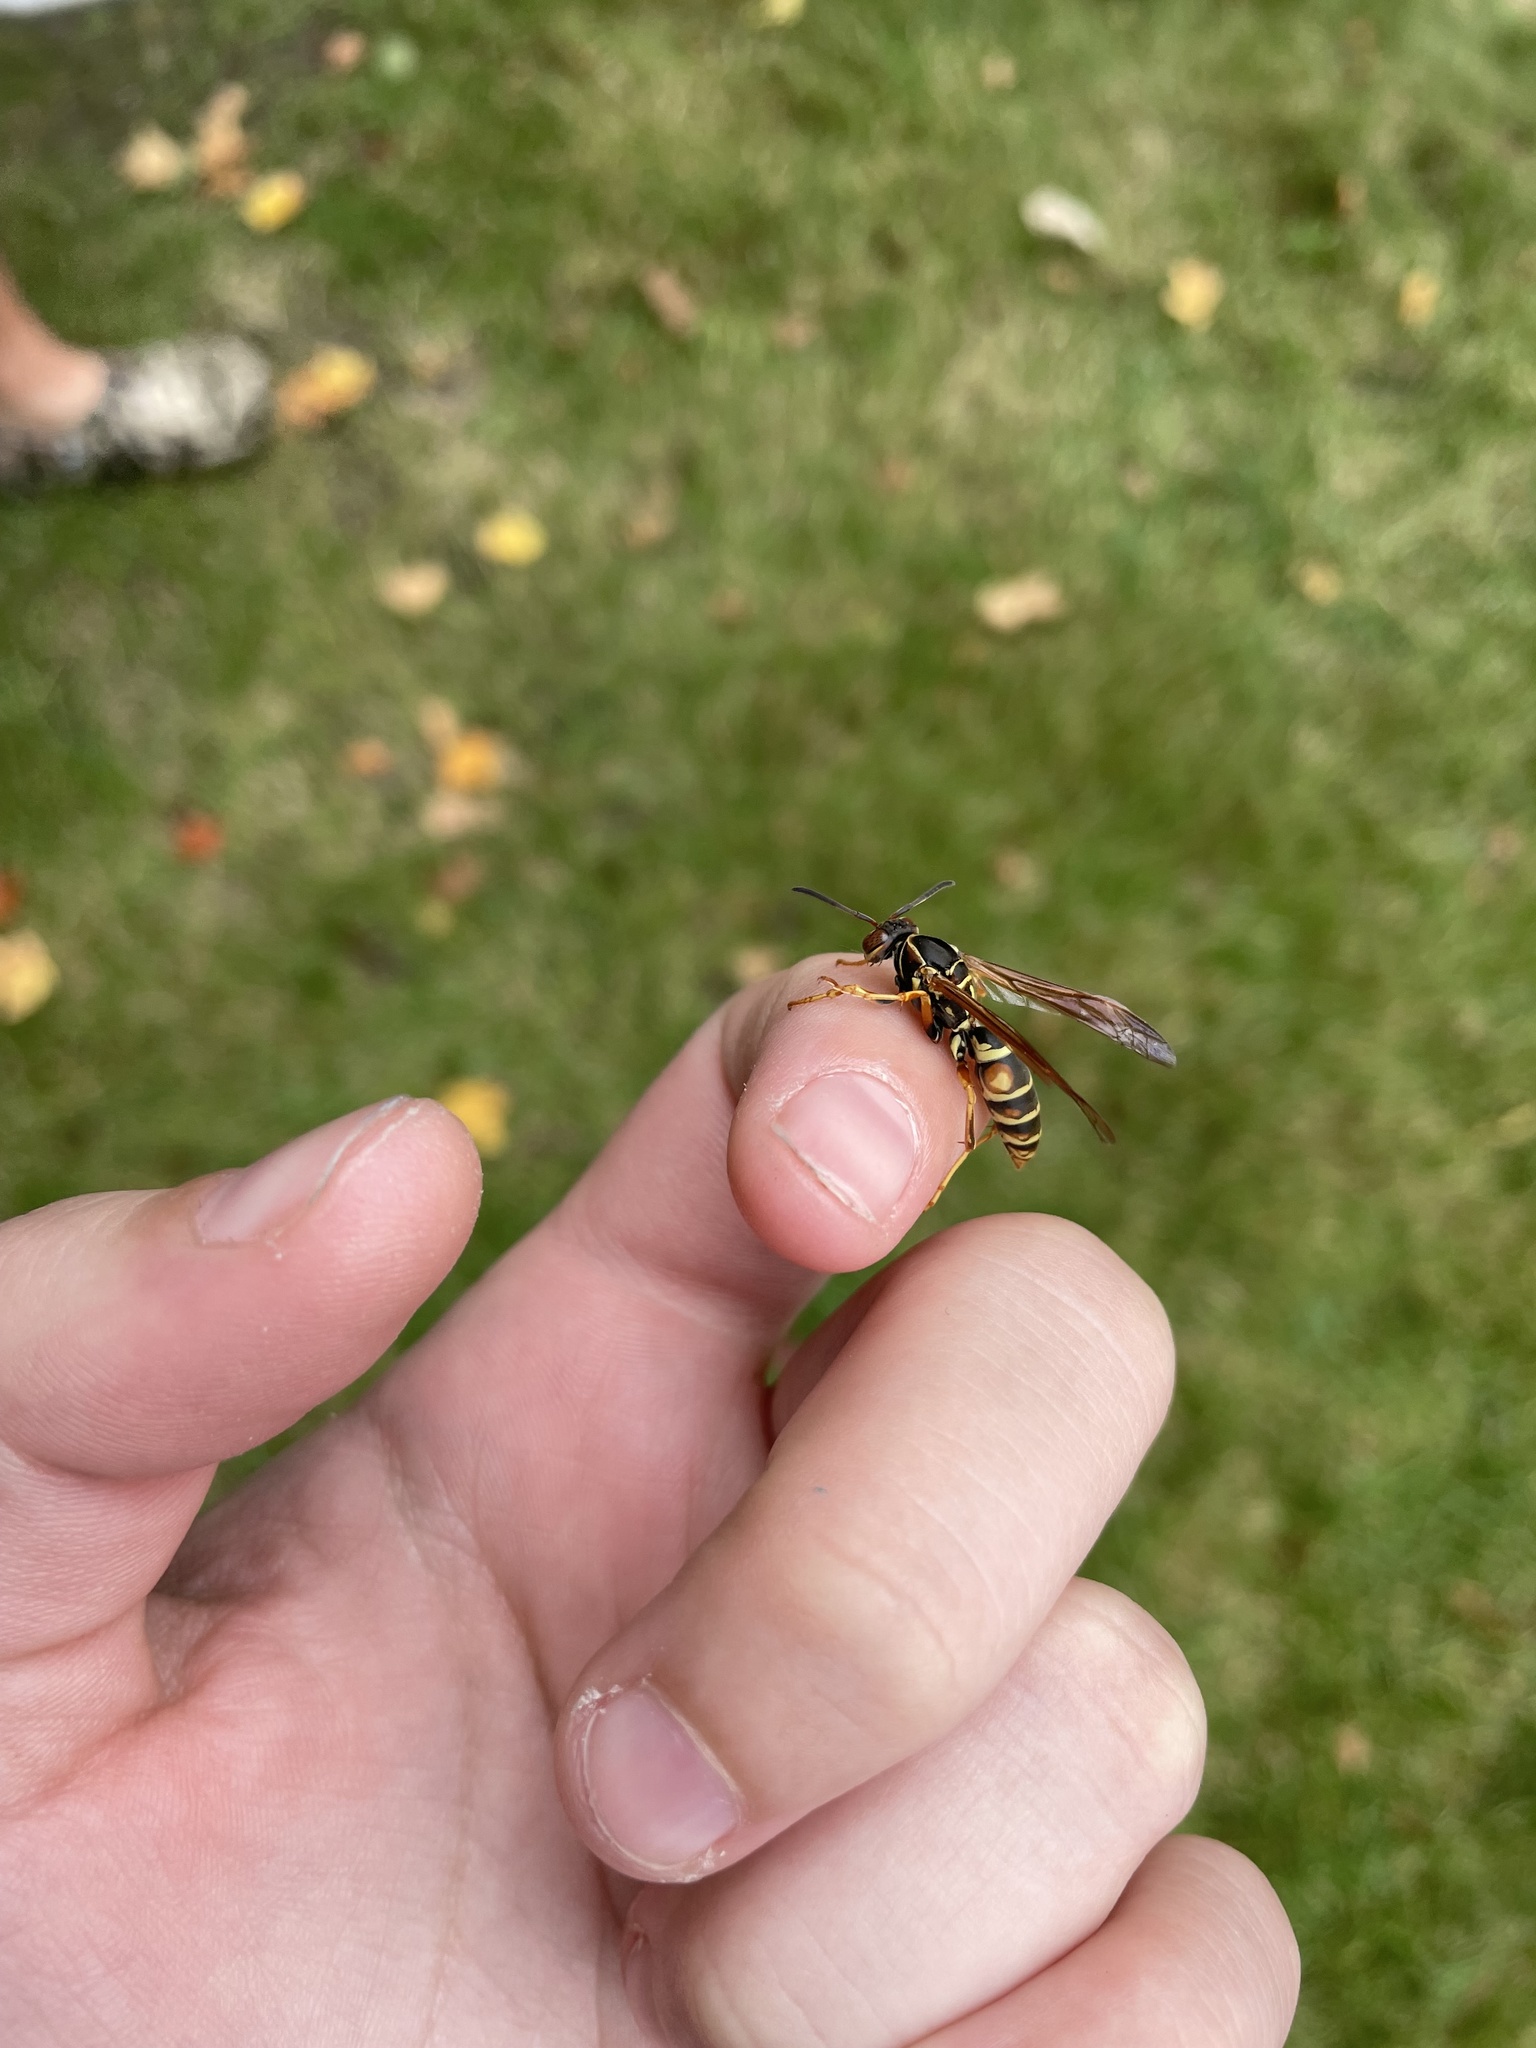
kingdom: Animalia
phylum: Arthropoda
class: Insecta
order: Hymenoptera
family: Eumenidae
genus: Polistes
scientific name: Polistes fuscatus
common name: Dark paper wasp
